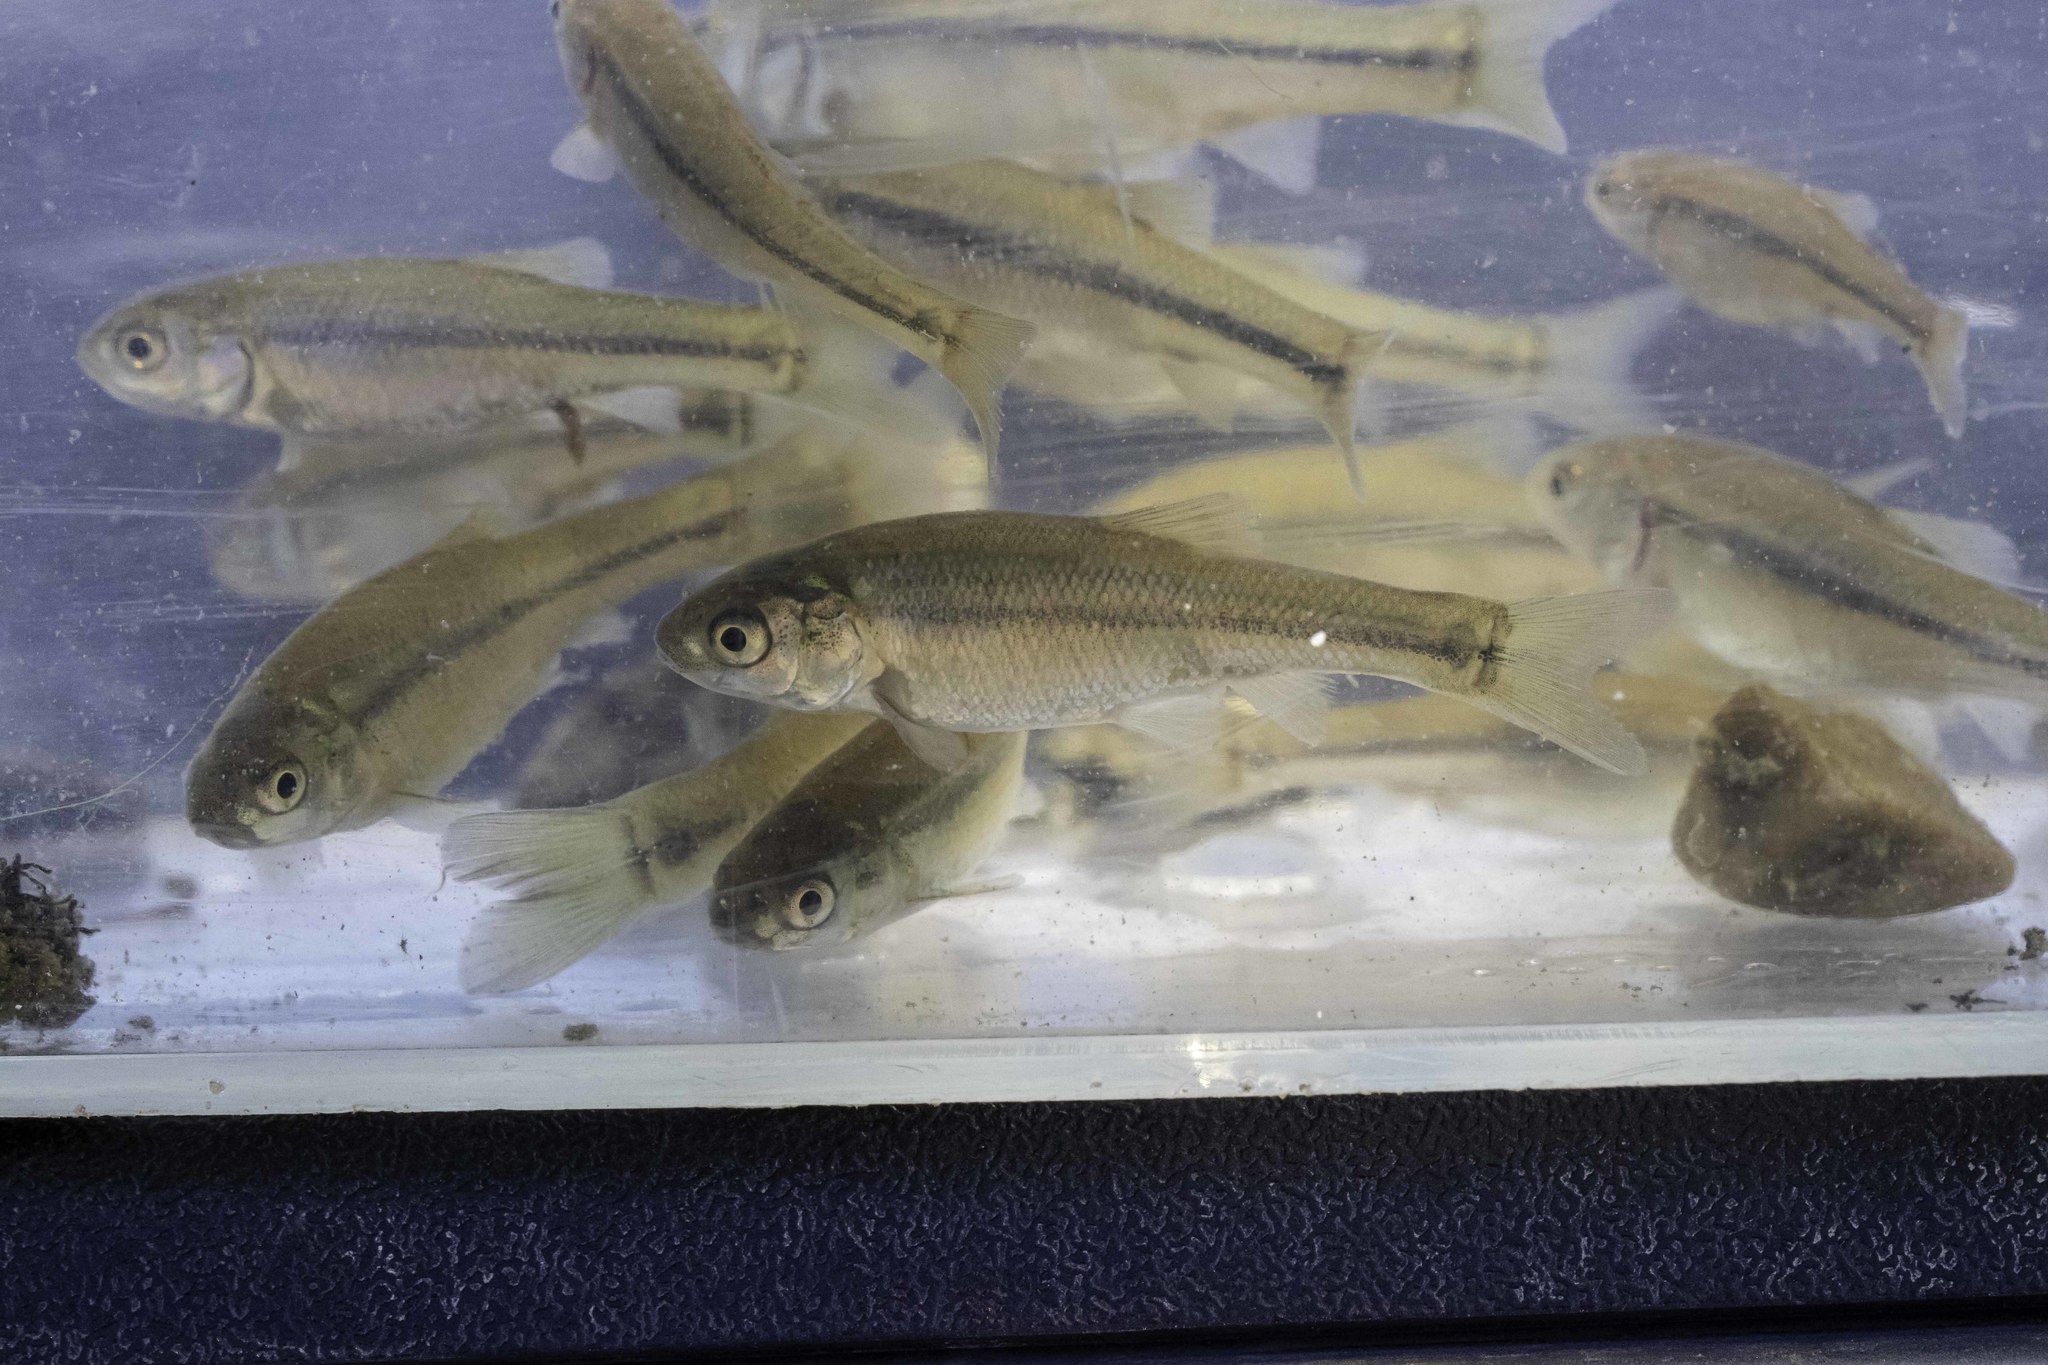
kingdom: Animalia
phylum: Chordata
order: Cypriniformes
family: Cyprinidae
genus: Pimephales
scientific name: Pimephales promelas
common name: Fathead minnow
